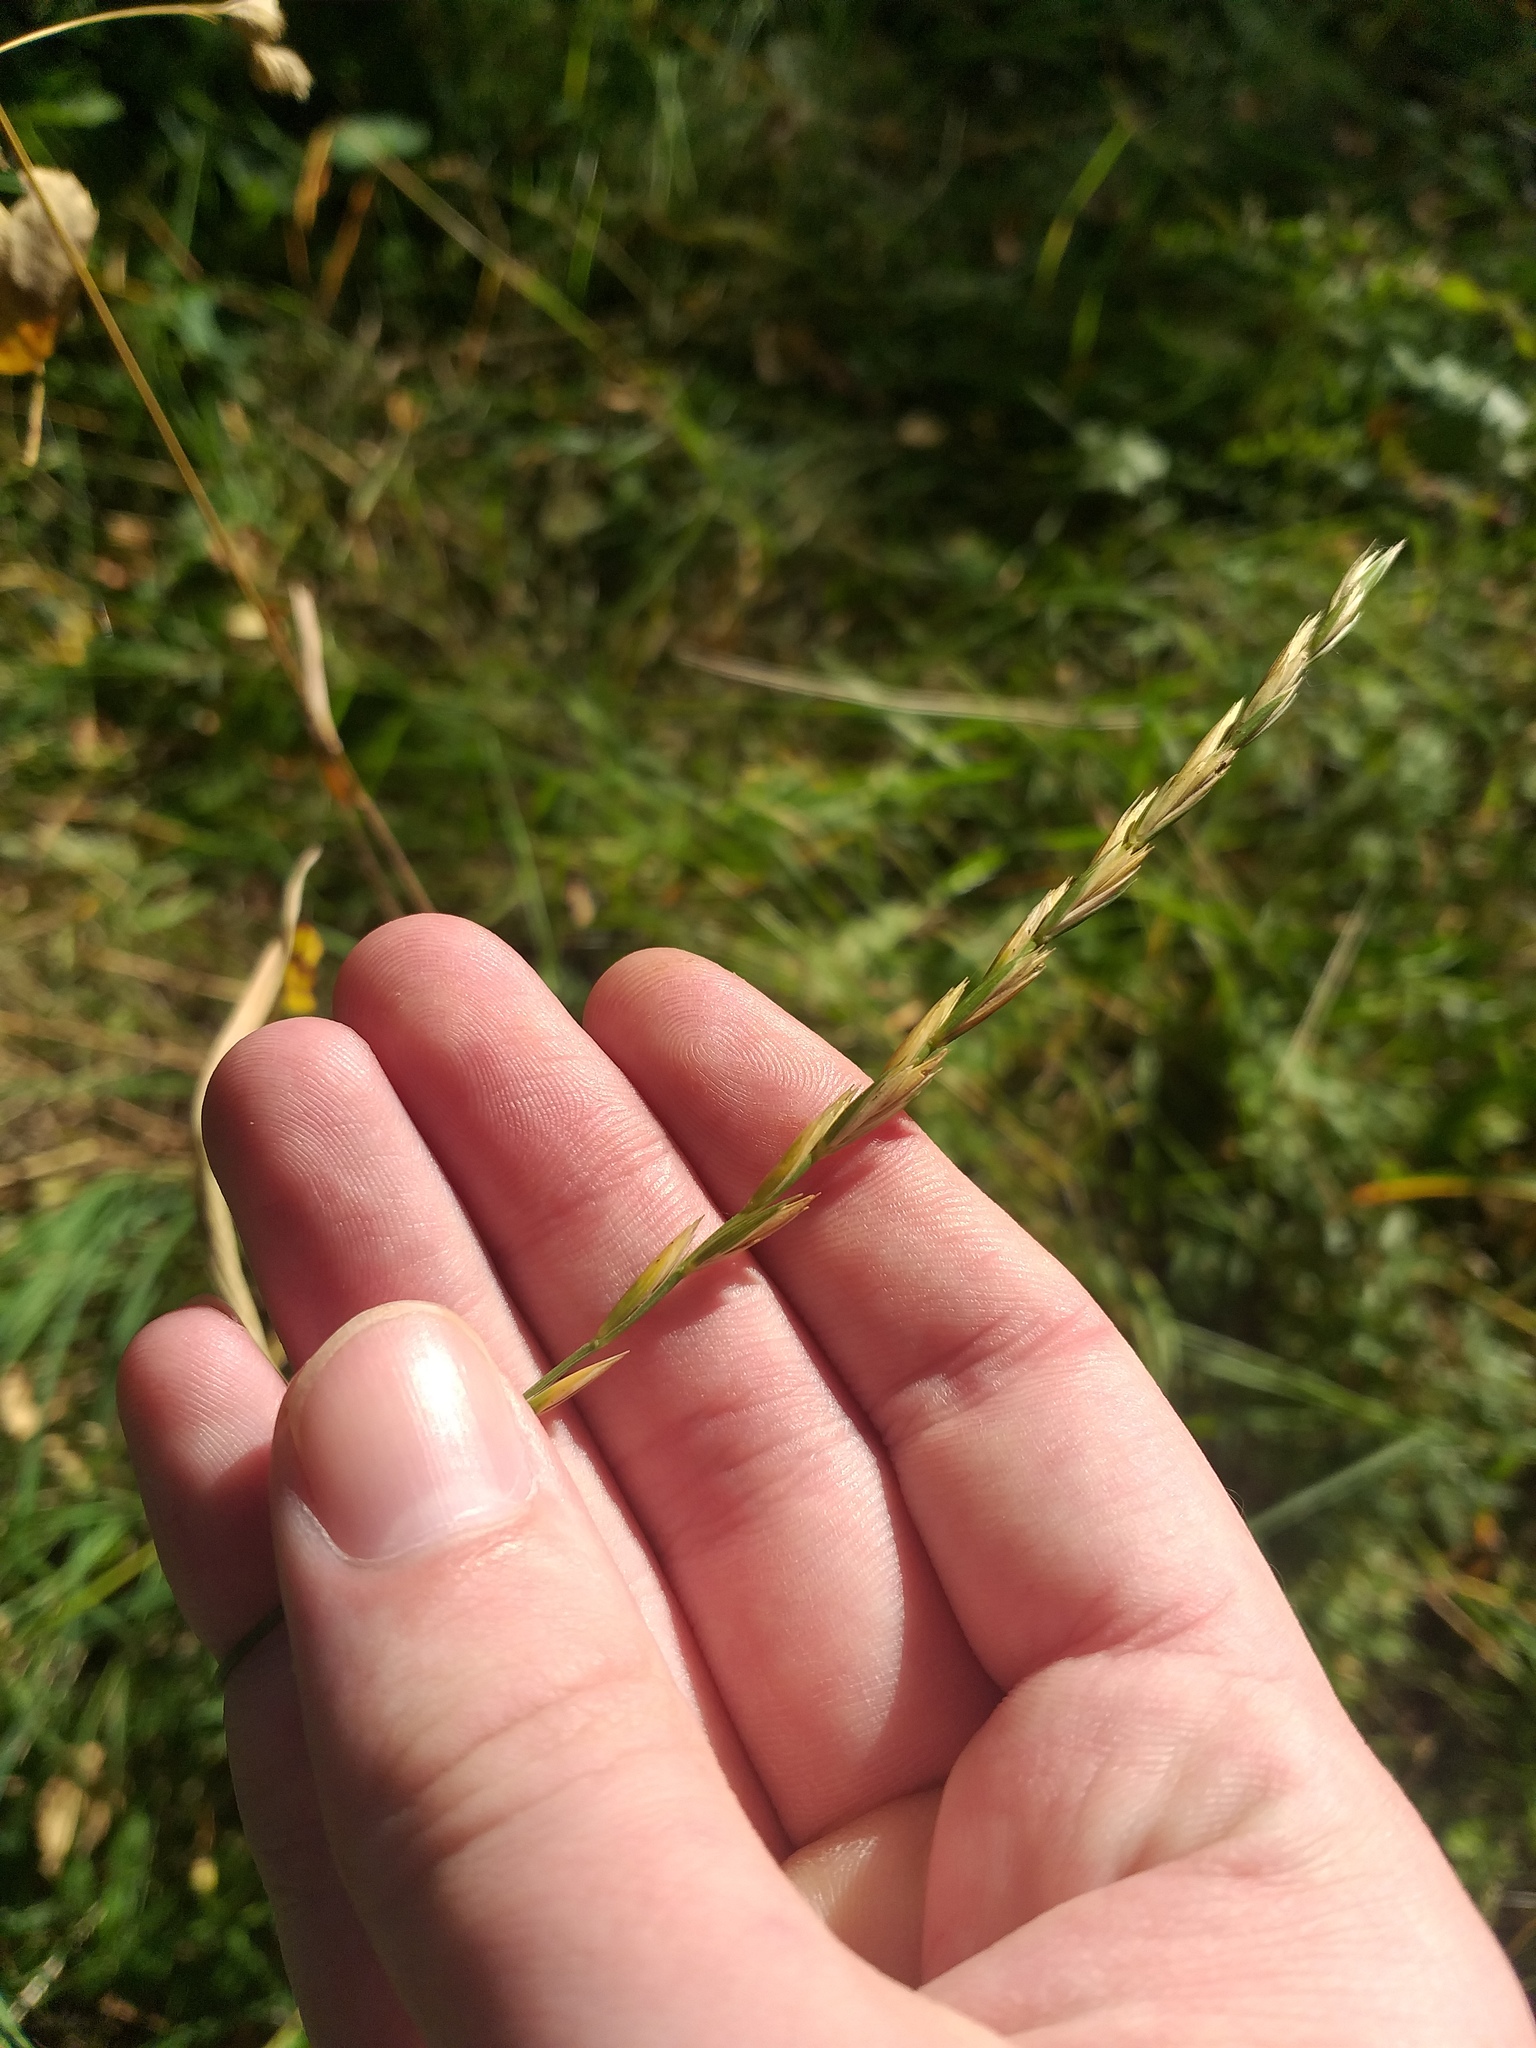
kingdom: Plantae
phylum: Tracheophyta
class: Liliopsida
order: Poales
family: Poaceae
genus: Elymus
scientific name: Elymus repens
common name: Quackgrass
